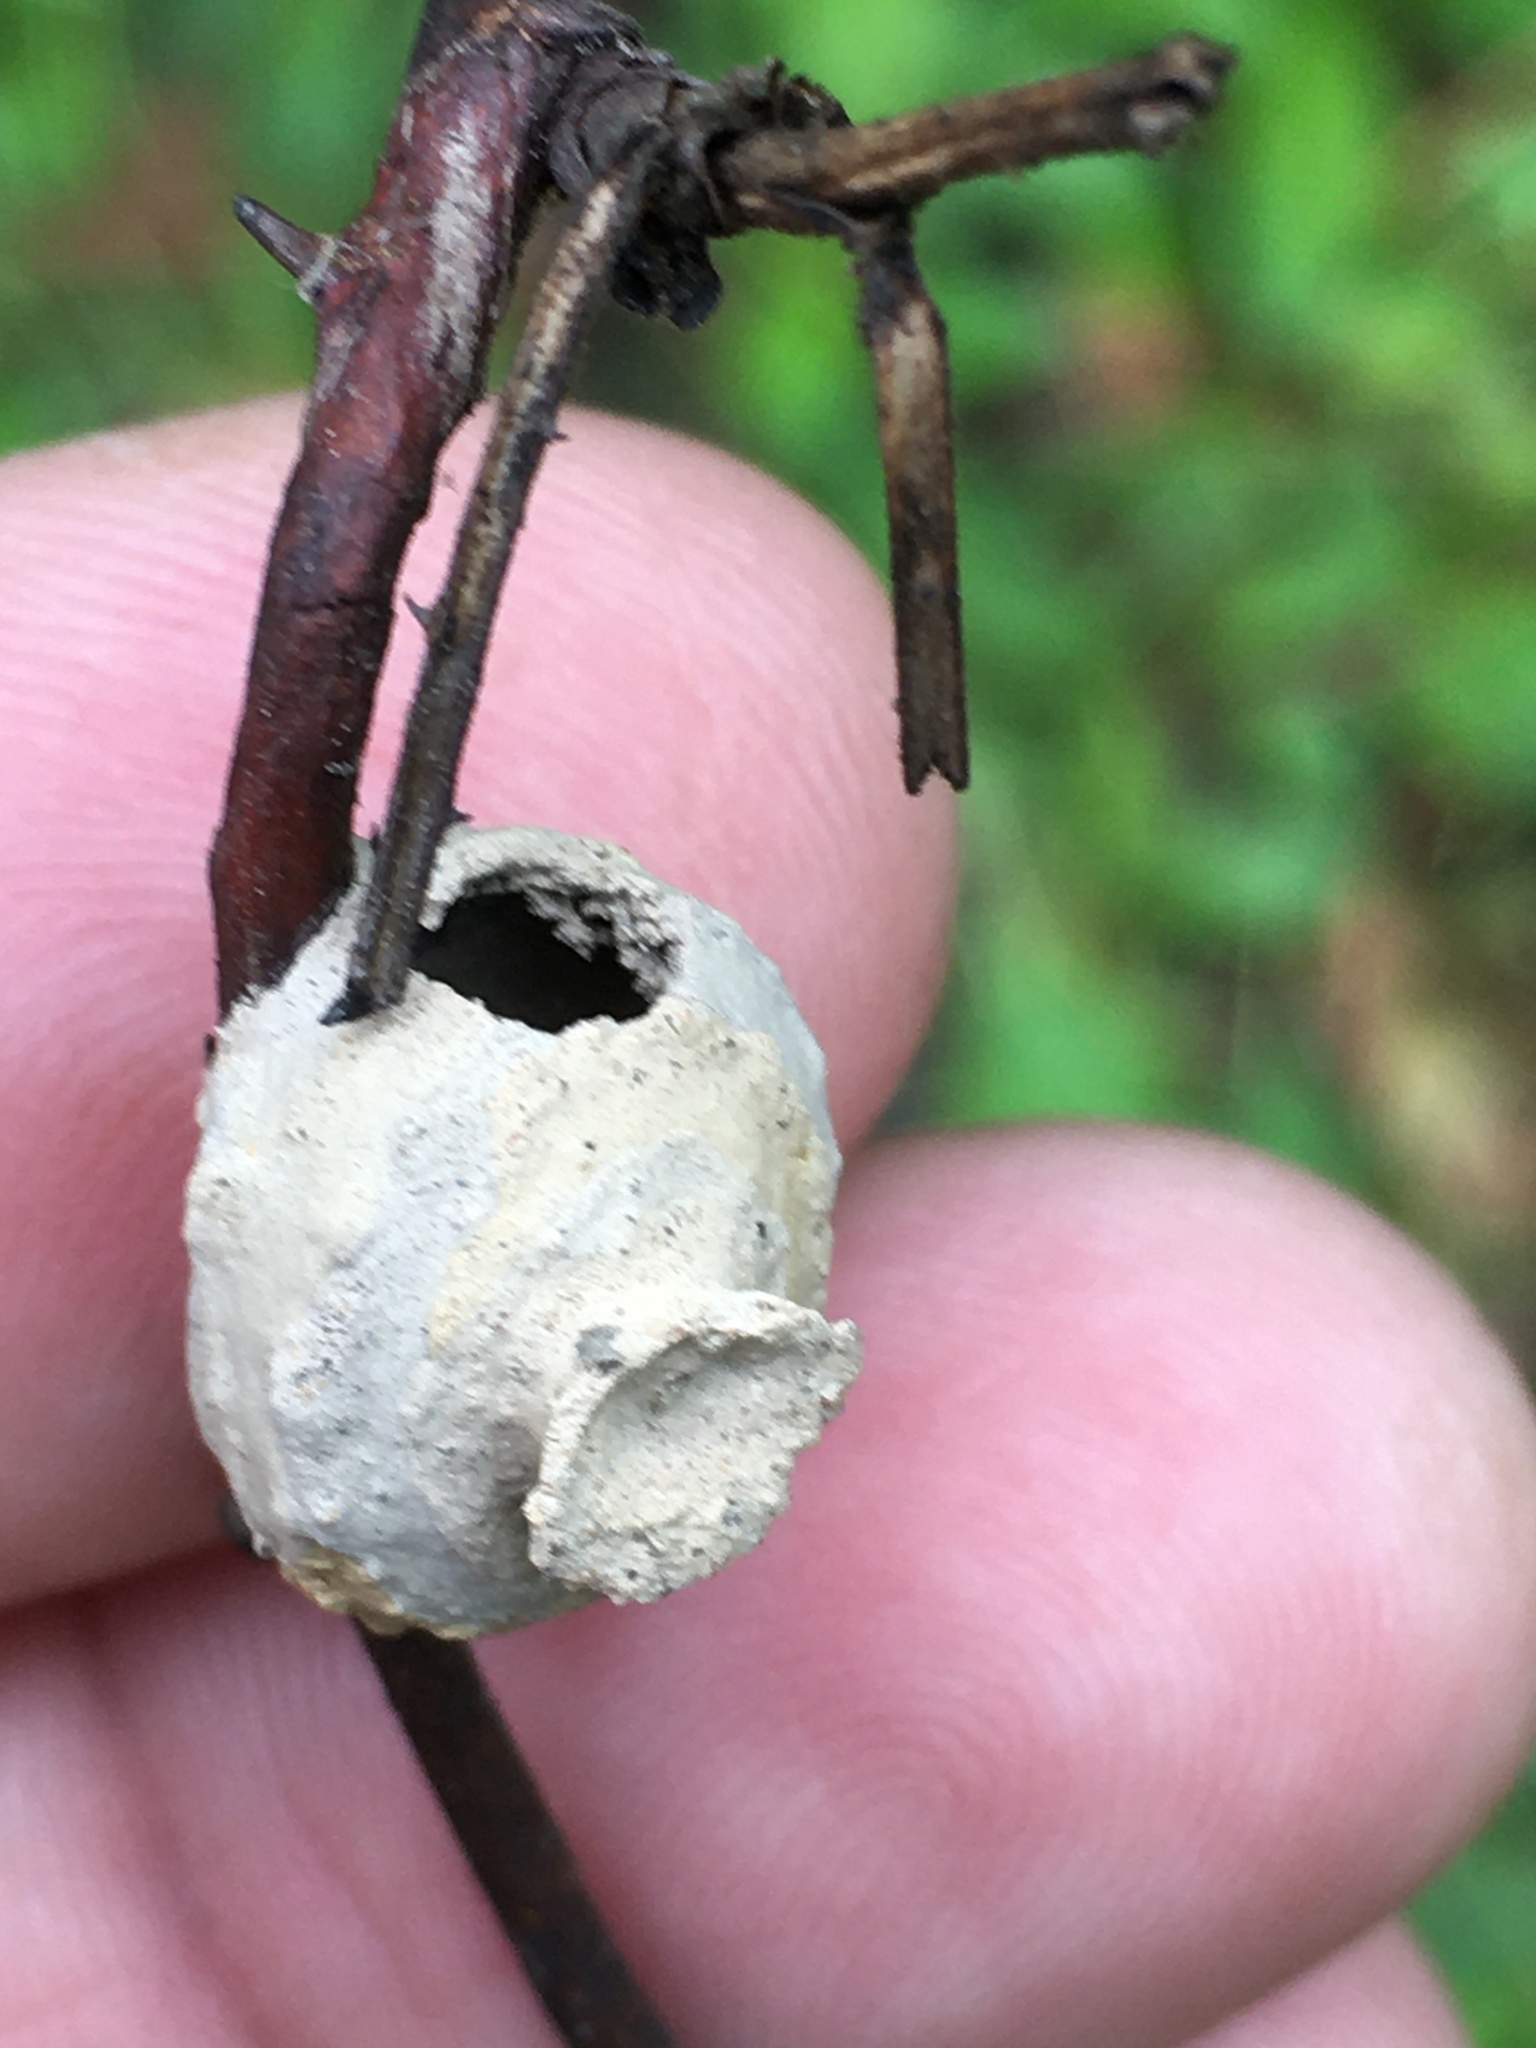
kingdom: Animalia
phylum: Arthropoda
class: Insecta
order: Hymenoptera
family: Eumenidae
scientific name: Eumenidae
